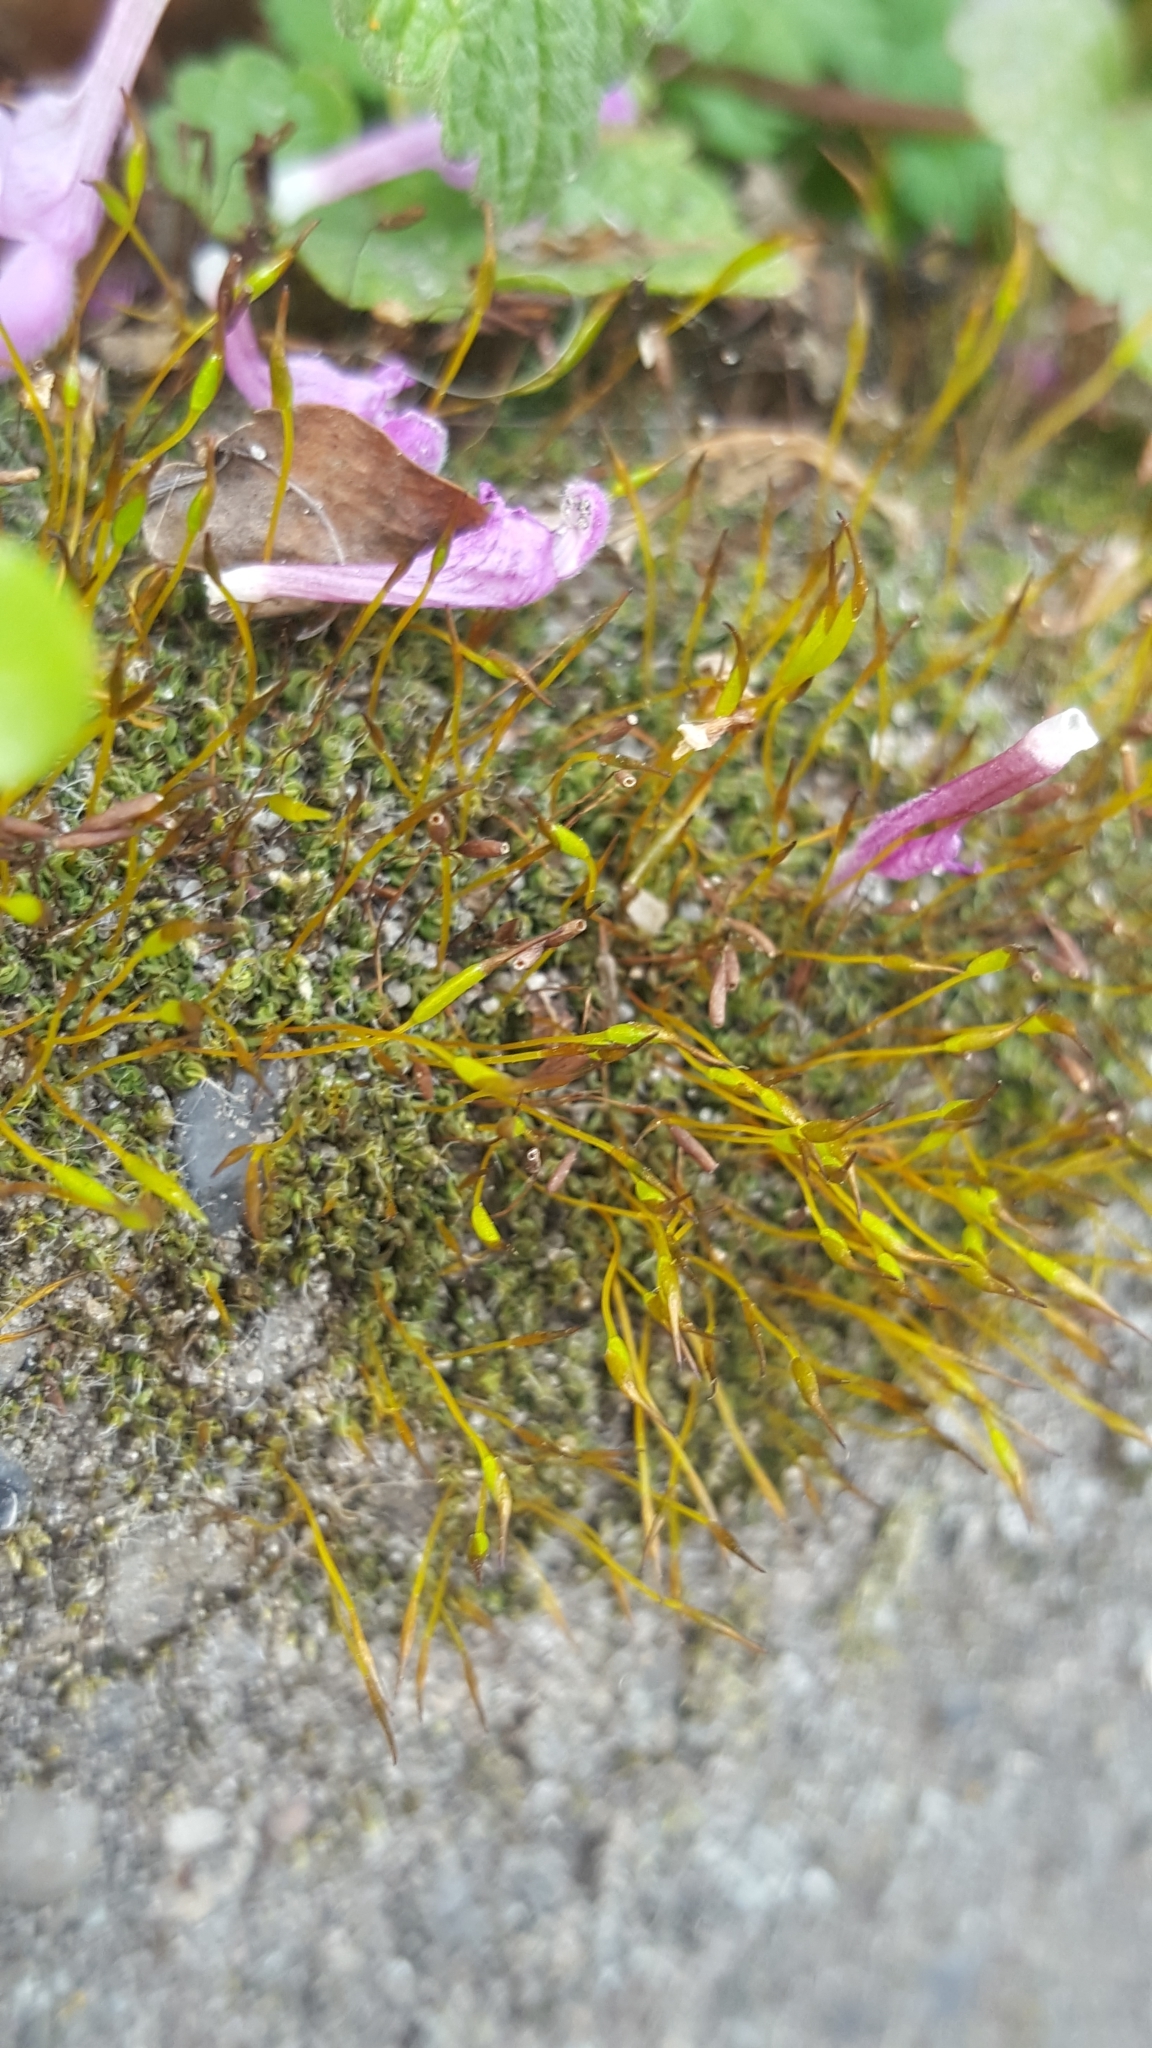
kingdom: Plantae
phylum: Bryophyta
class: Bryopsida
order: Pottiales
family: Pottiaceae
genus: Tortula
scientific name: Tortula muralis
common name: Wall screw-moss
